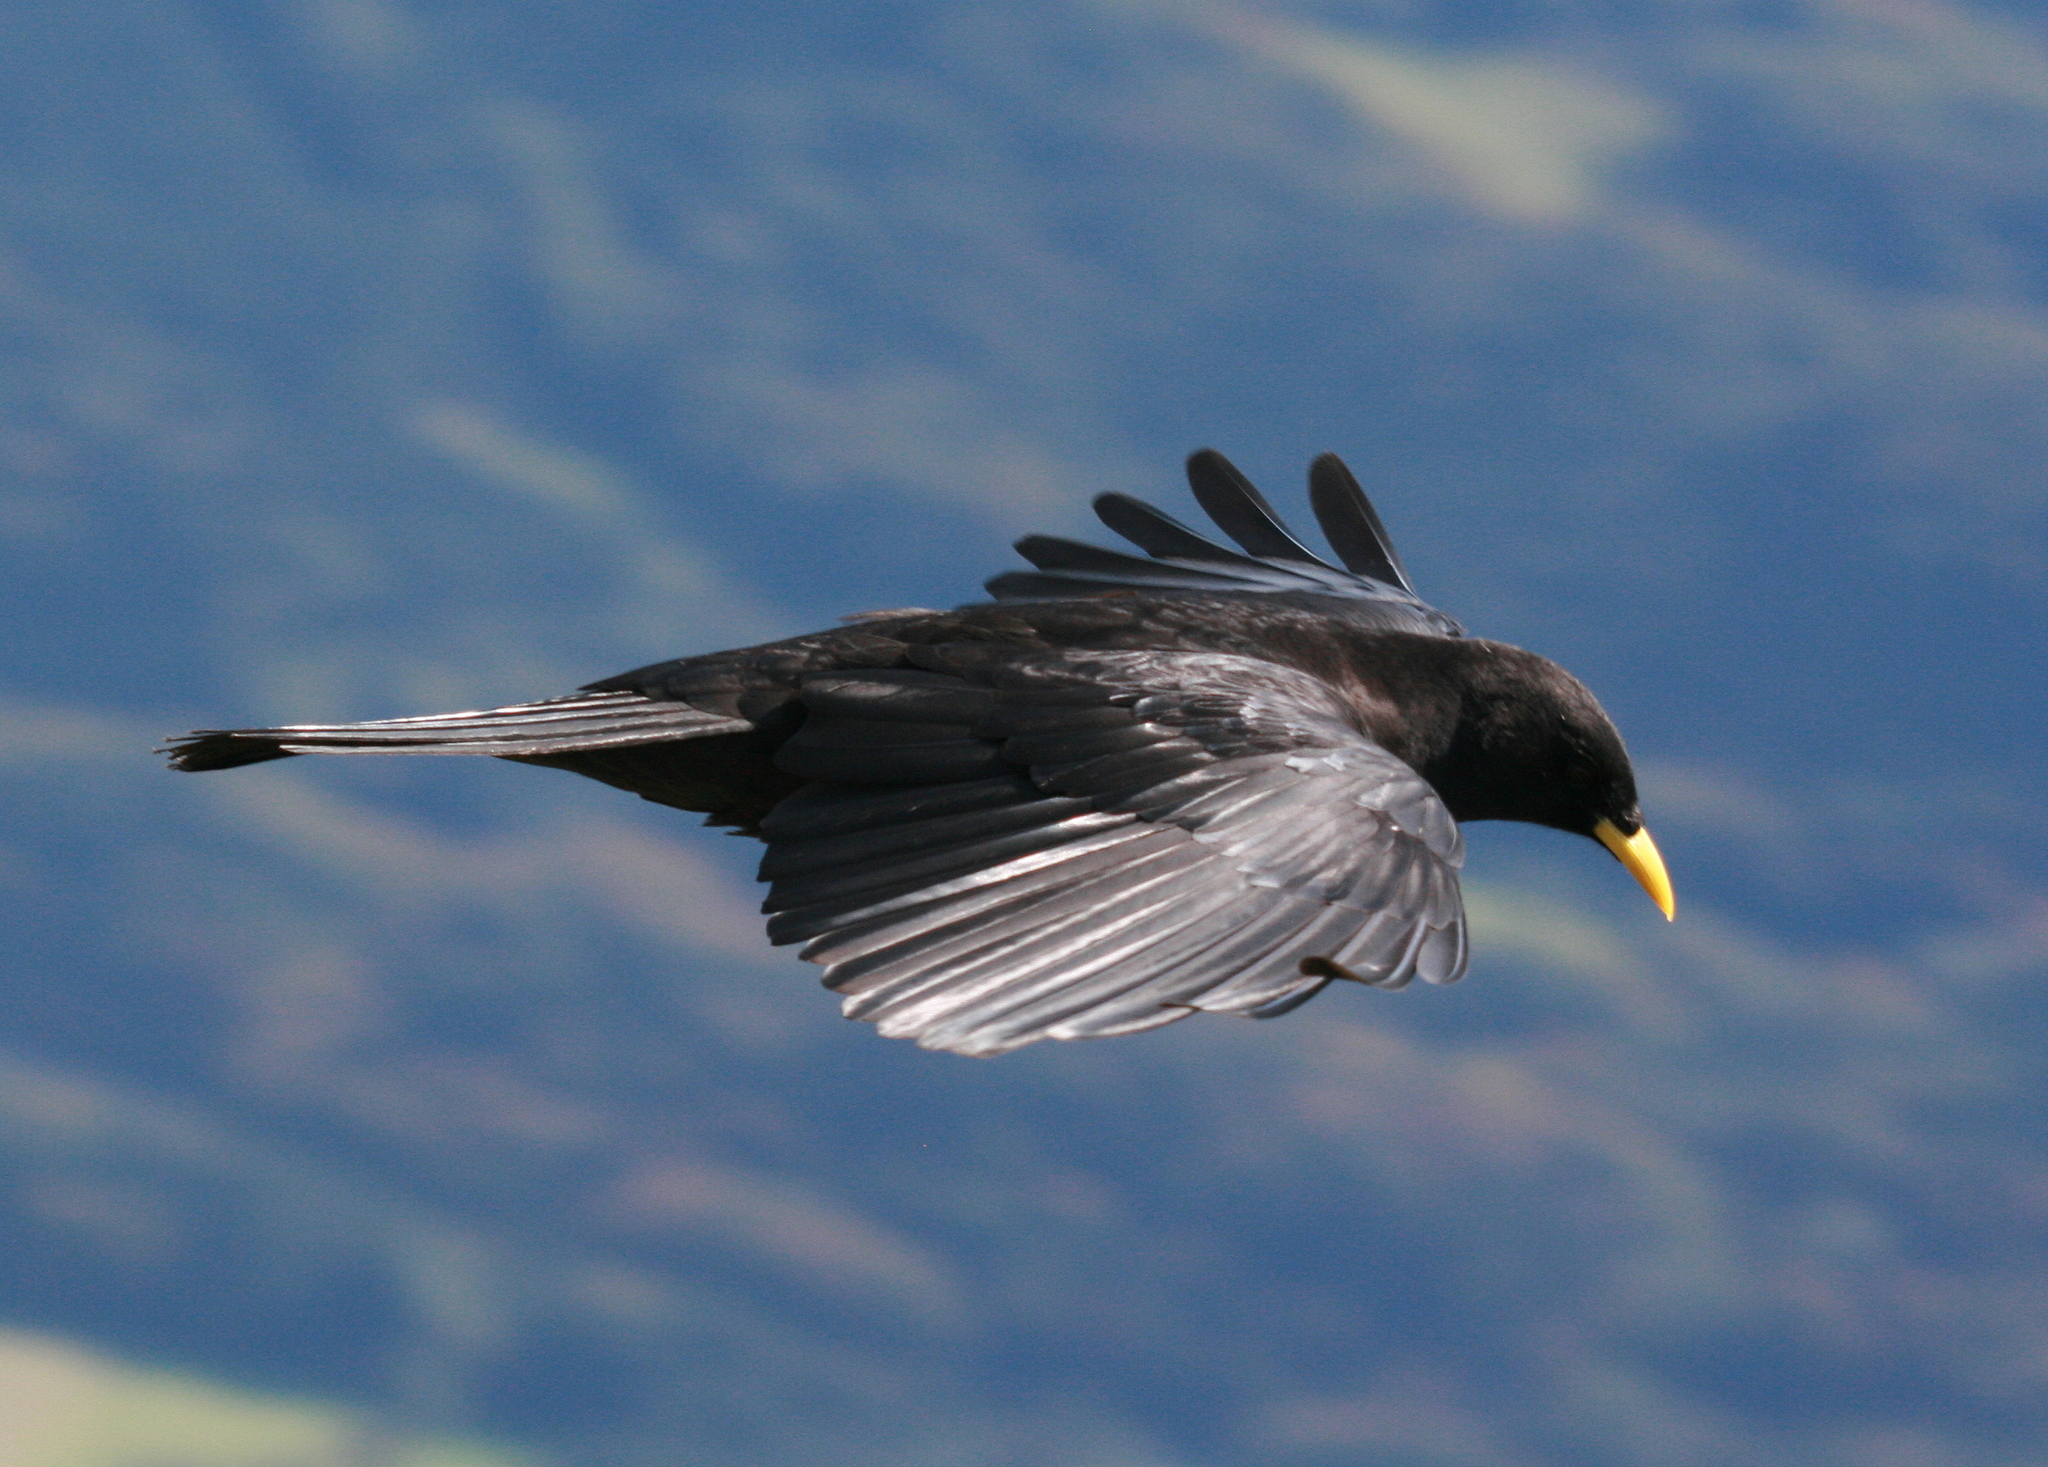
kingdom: Animalia
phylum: Chordata
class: Aves
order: Passeriformes
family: Corvidae
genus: Pyrrhocorax
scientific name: Pyrrhocorax graculus
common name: Alpine chough
